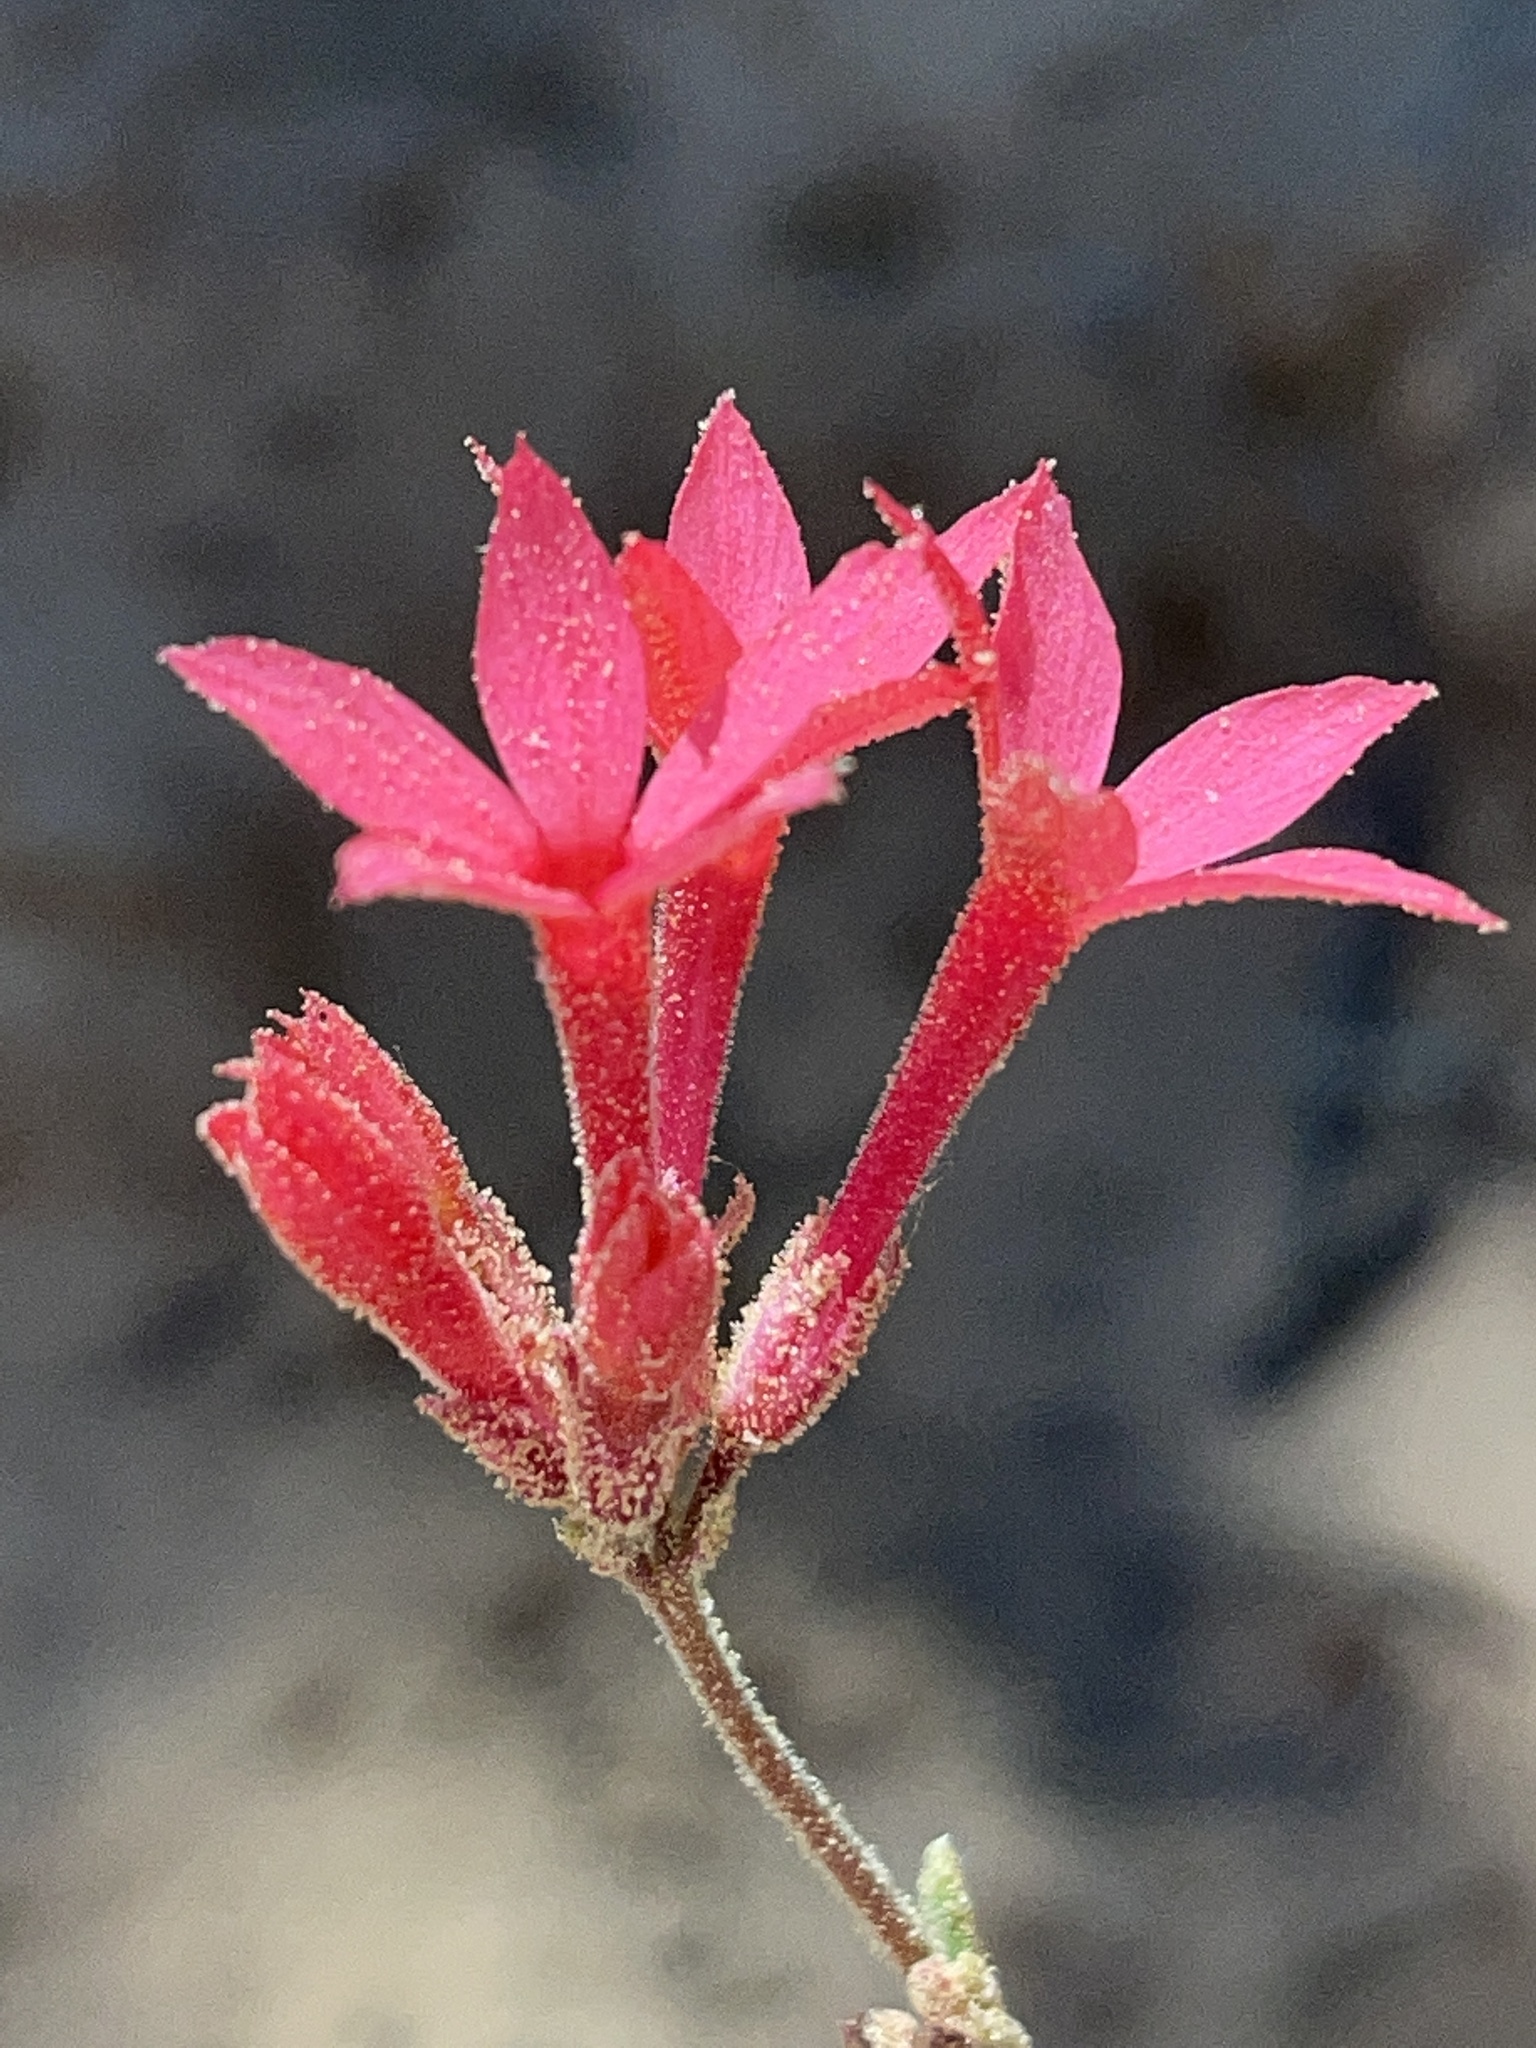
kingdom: Plantae
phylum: Tracheophyta
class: Magnoliopsida
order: Ericales
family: Polemoniaceae
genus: Aliciella
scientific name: Aliciella subnuda
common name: Coral gilia
